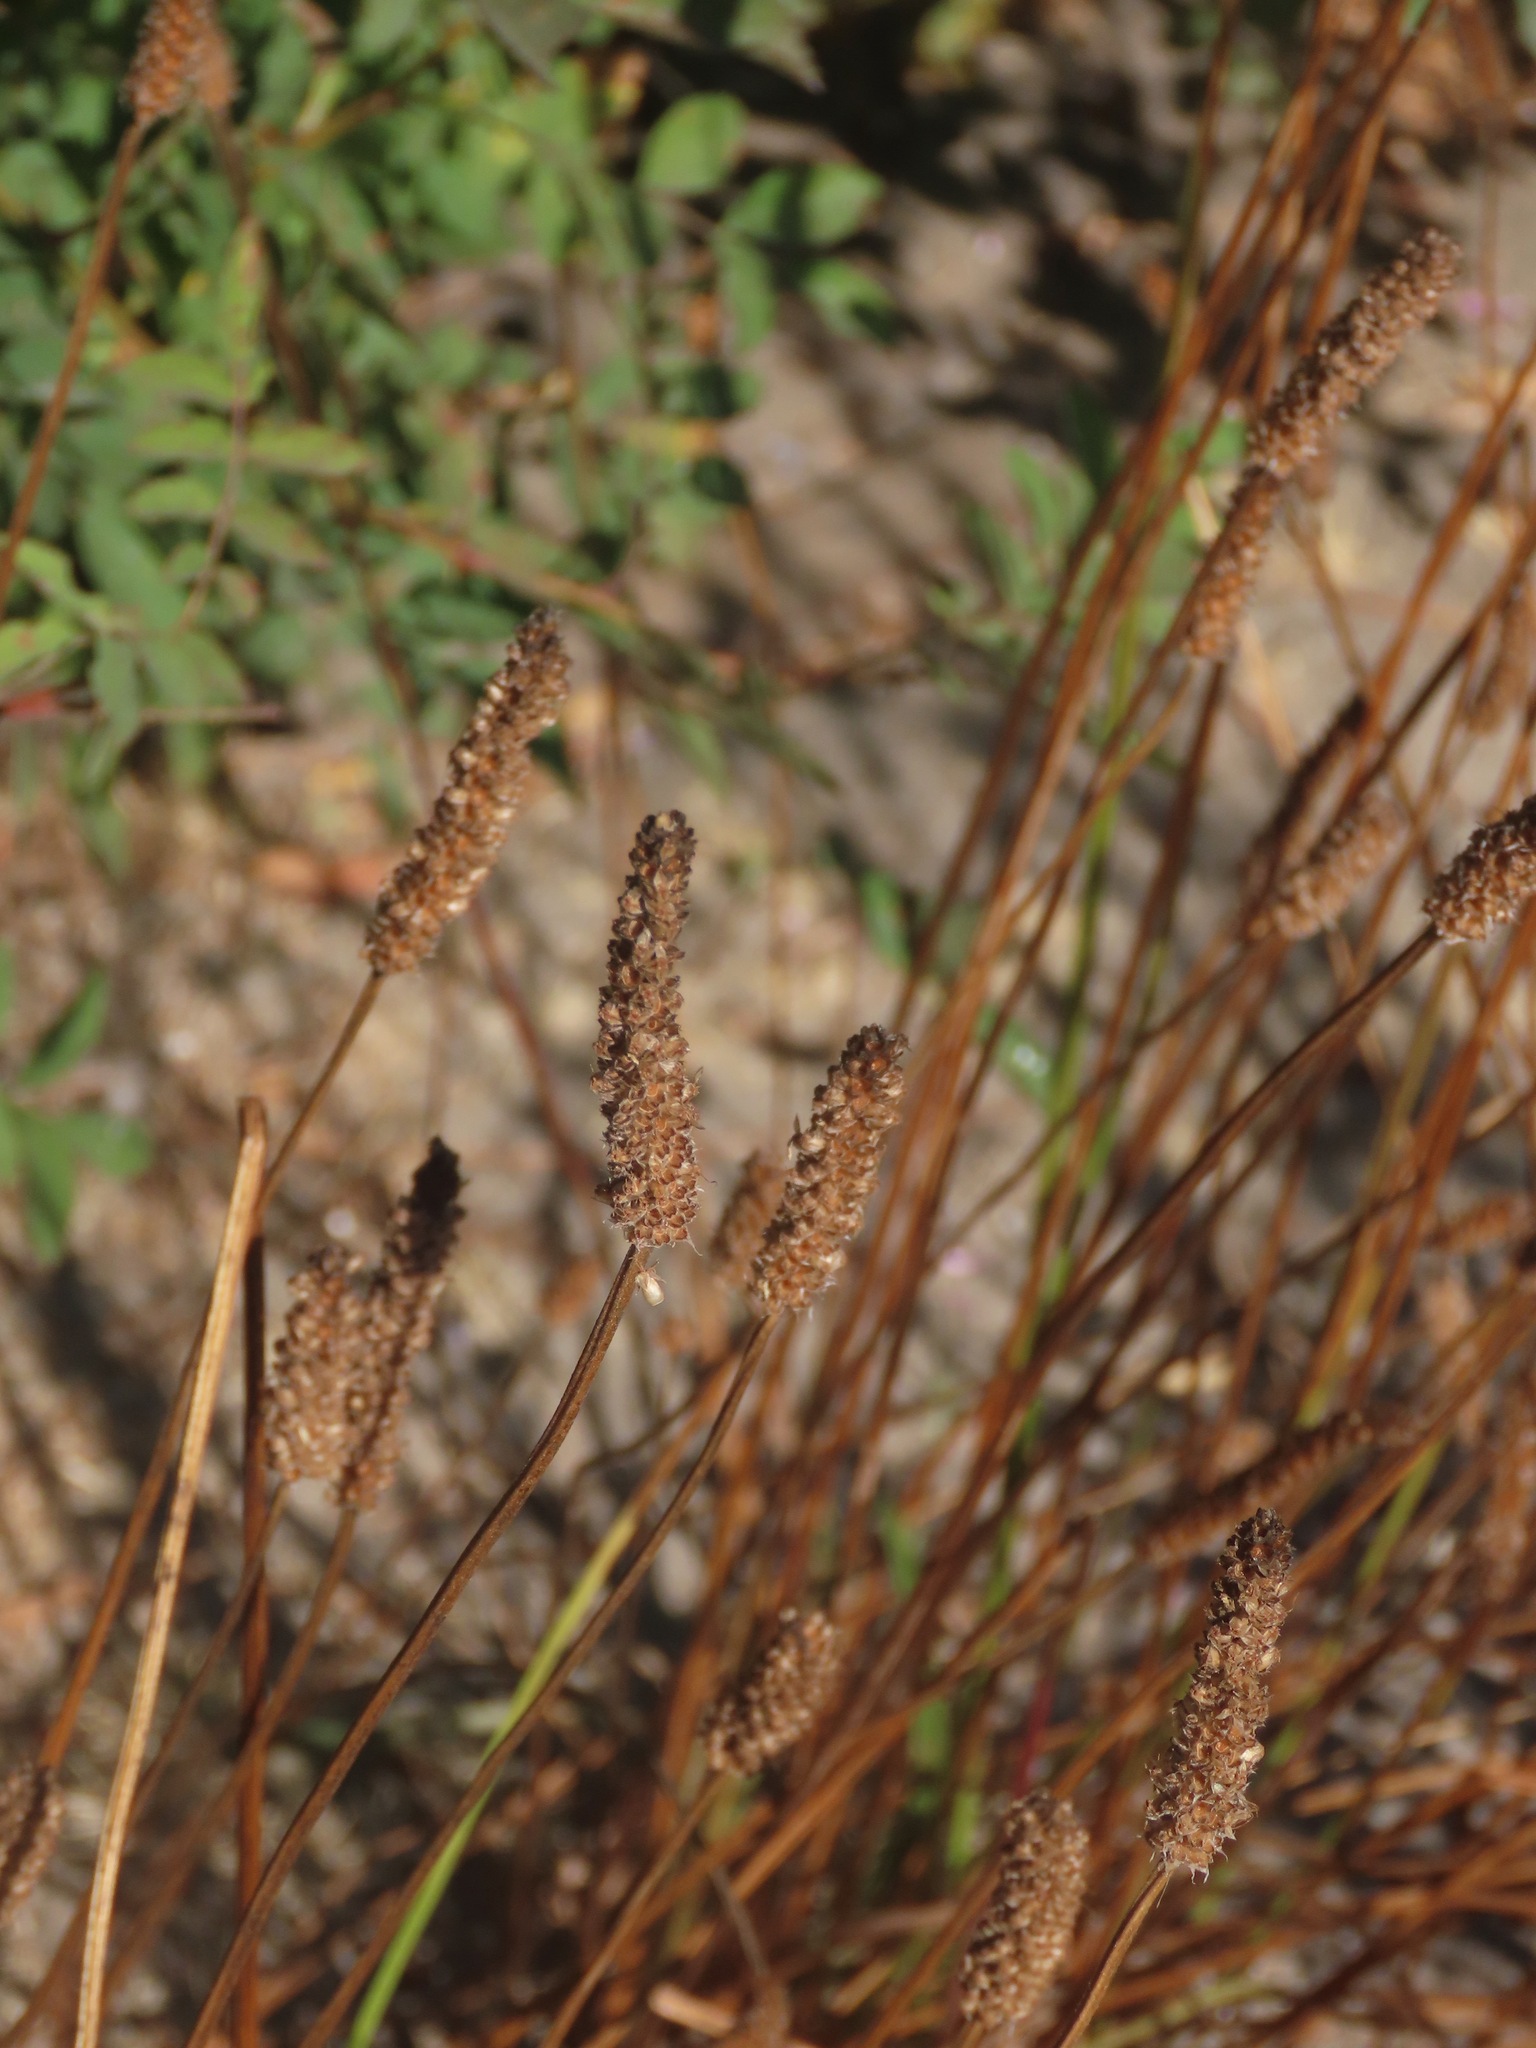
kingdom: Plantae
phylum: Tracheophyta
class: Magnoliopsida
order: Lamiales
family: Plantaginaceae
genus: Plantago
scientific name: Plantago lanceolata
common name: Ribwort plantain
